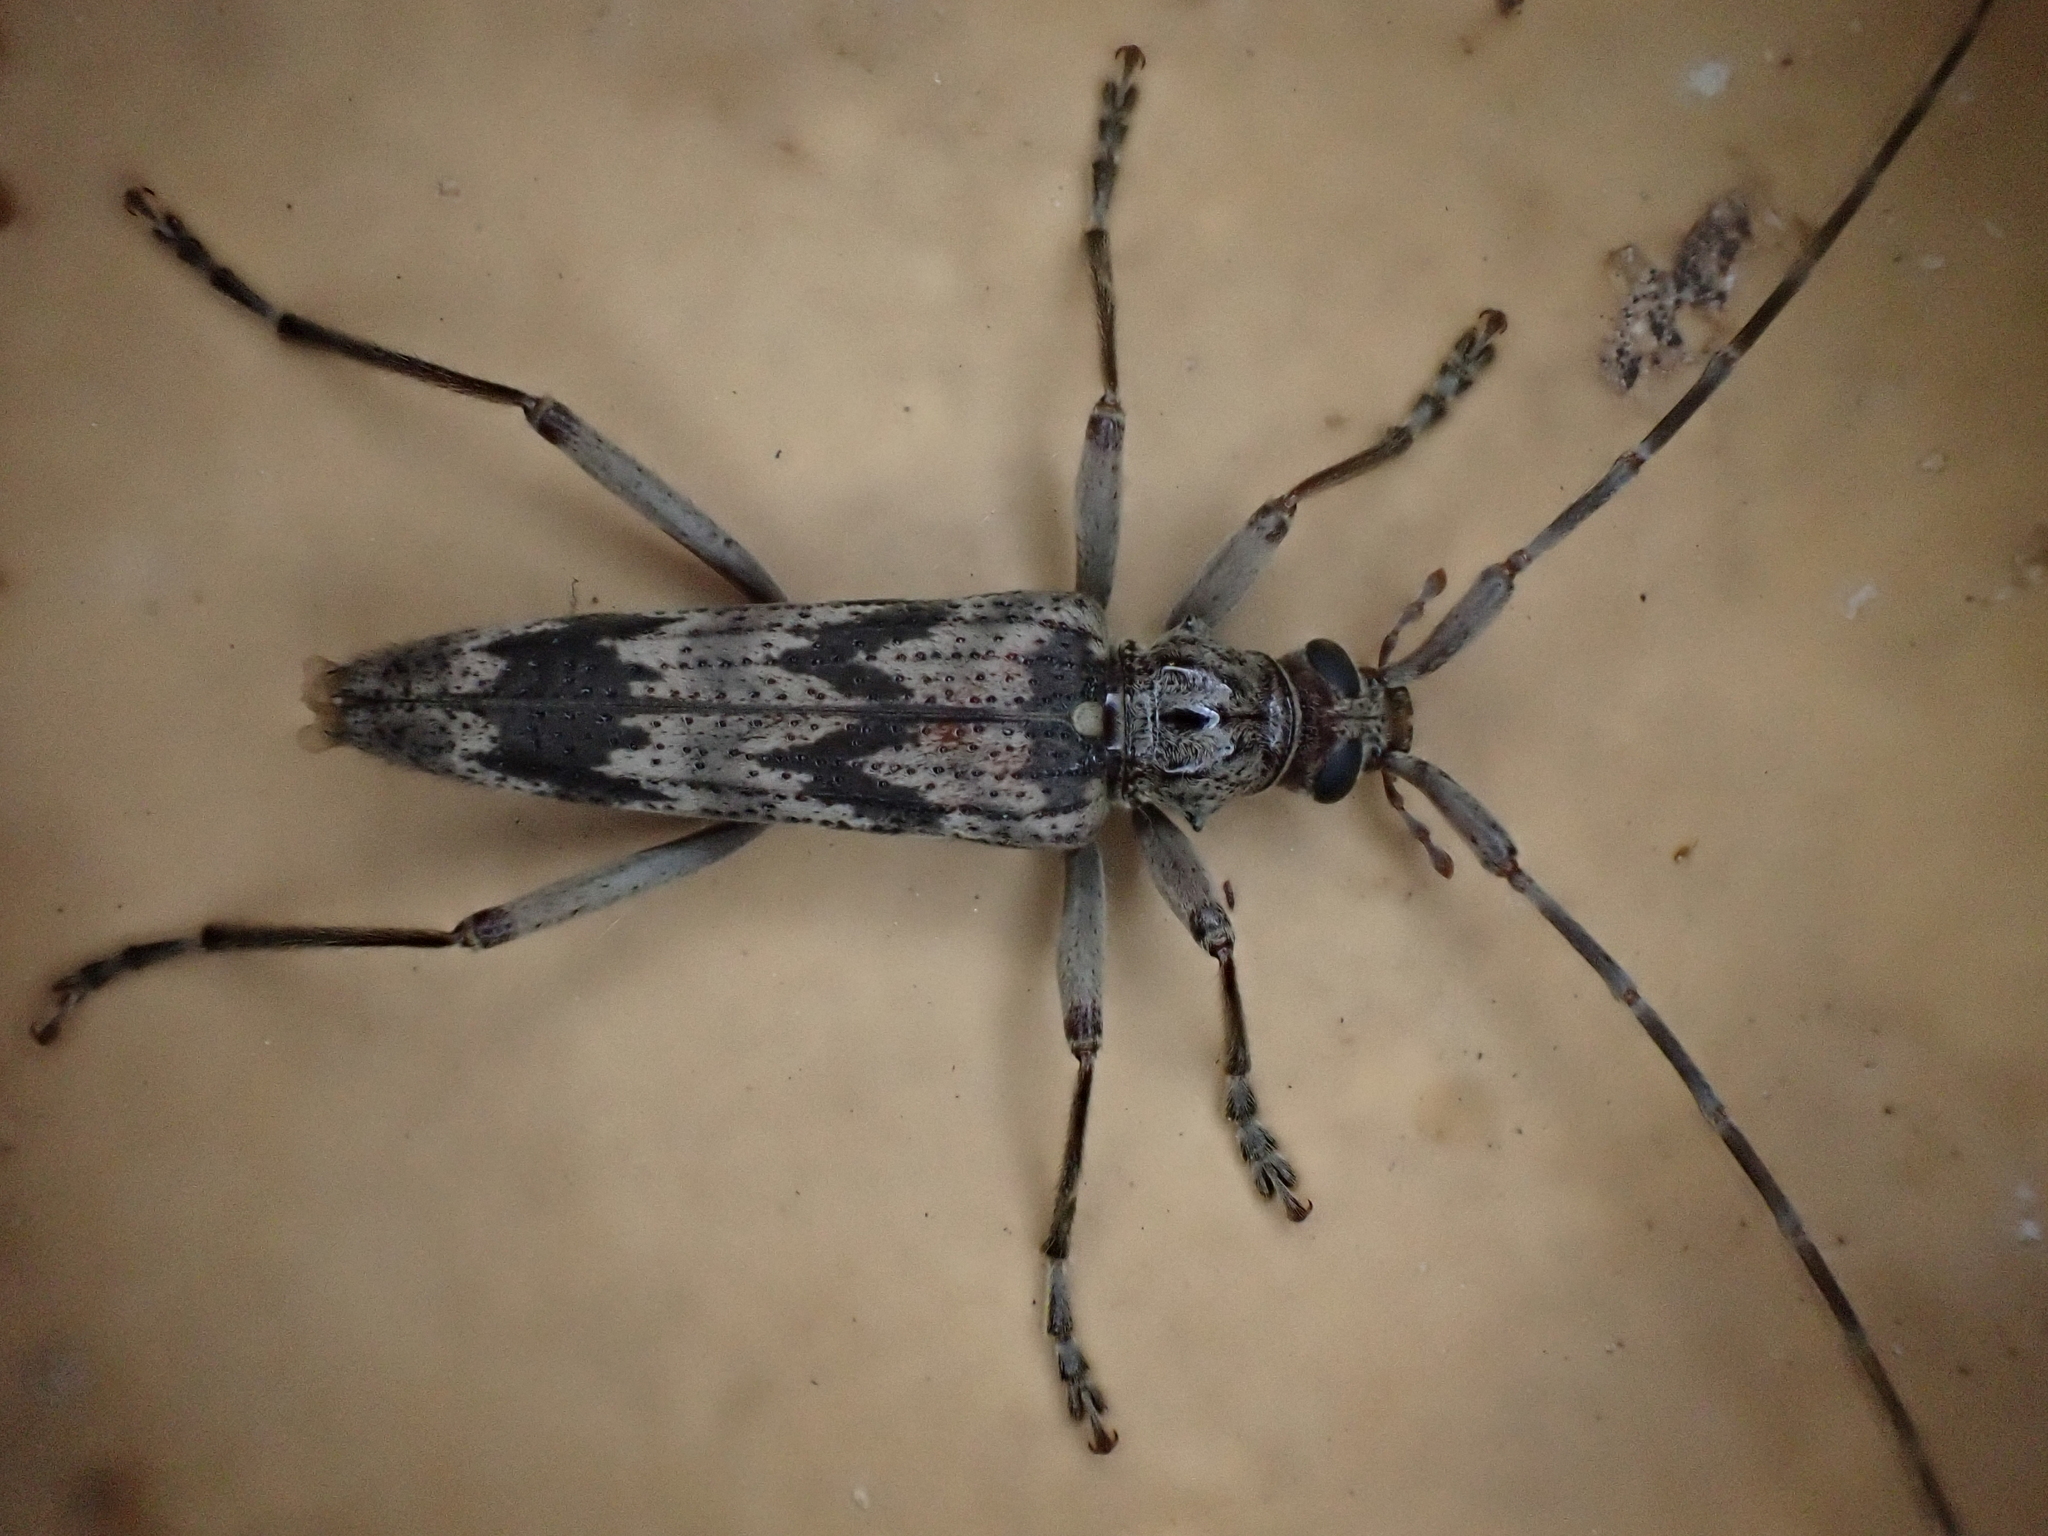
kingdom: Animalia
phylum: Arthropoda
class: Insecta
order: Coleoptera
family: Cerambycidae
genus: Elytrimitatrix
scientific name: Elytrimitatrix undata
